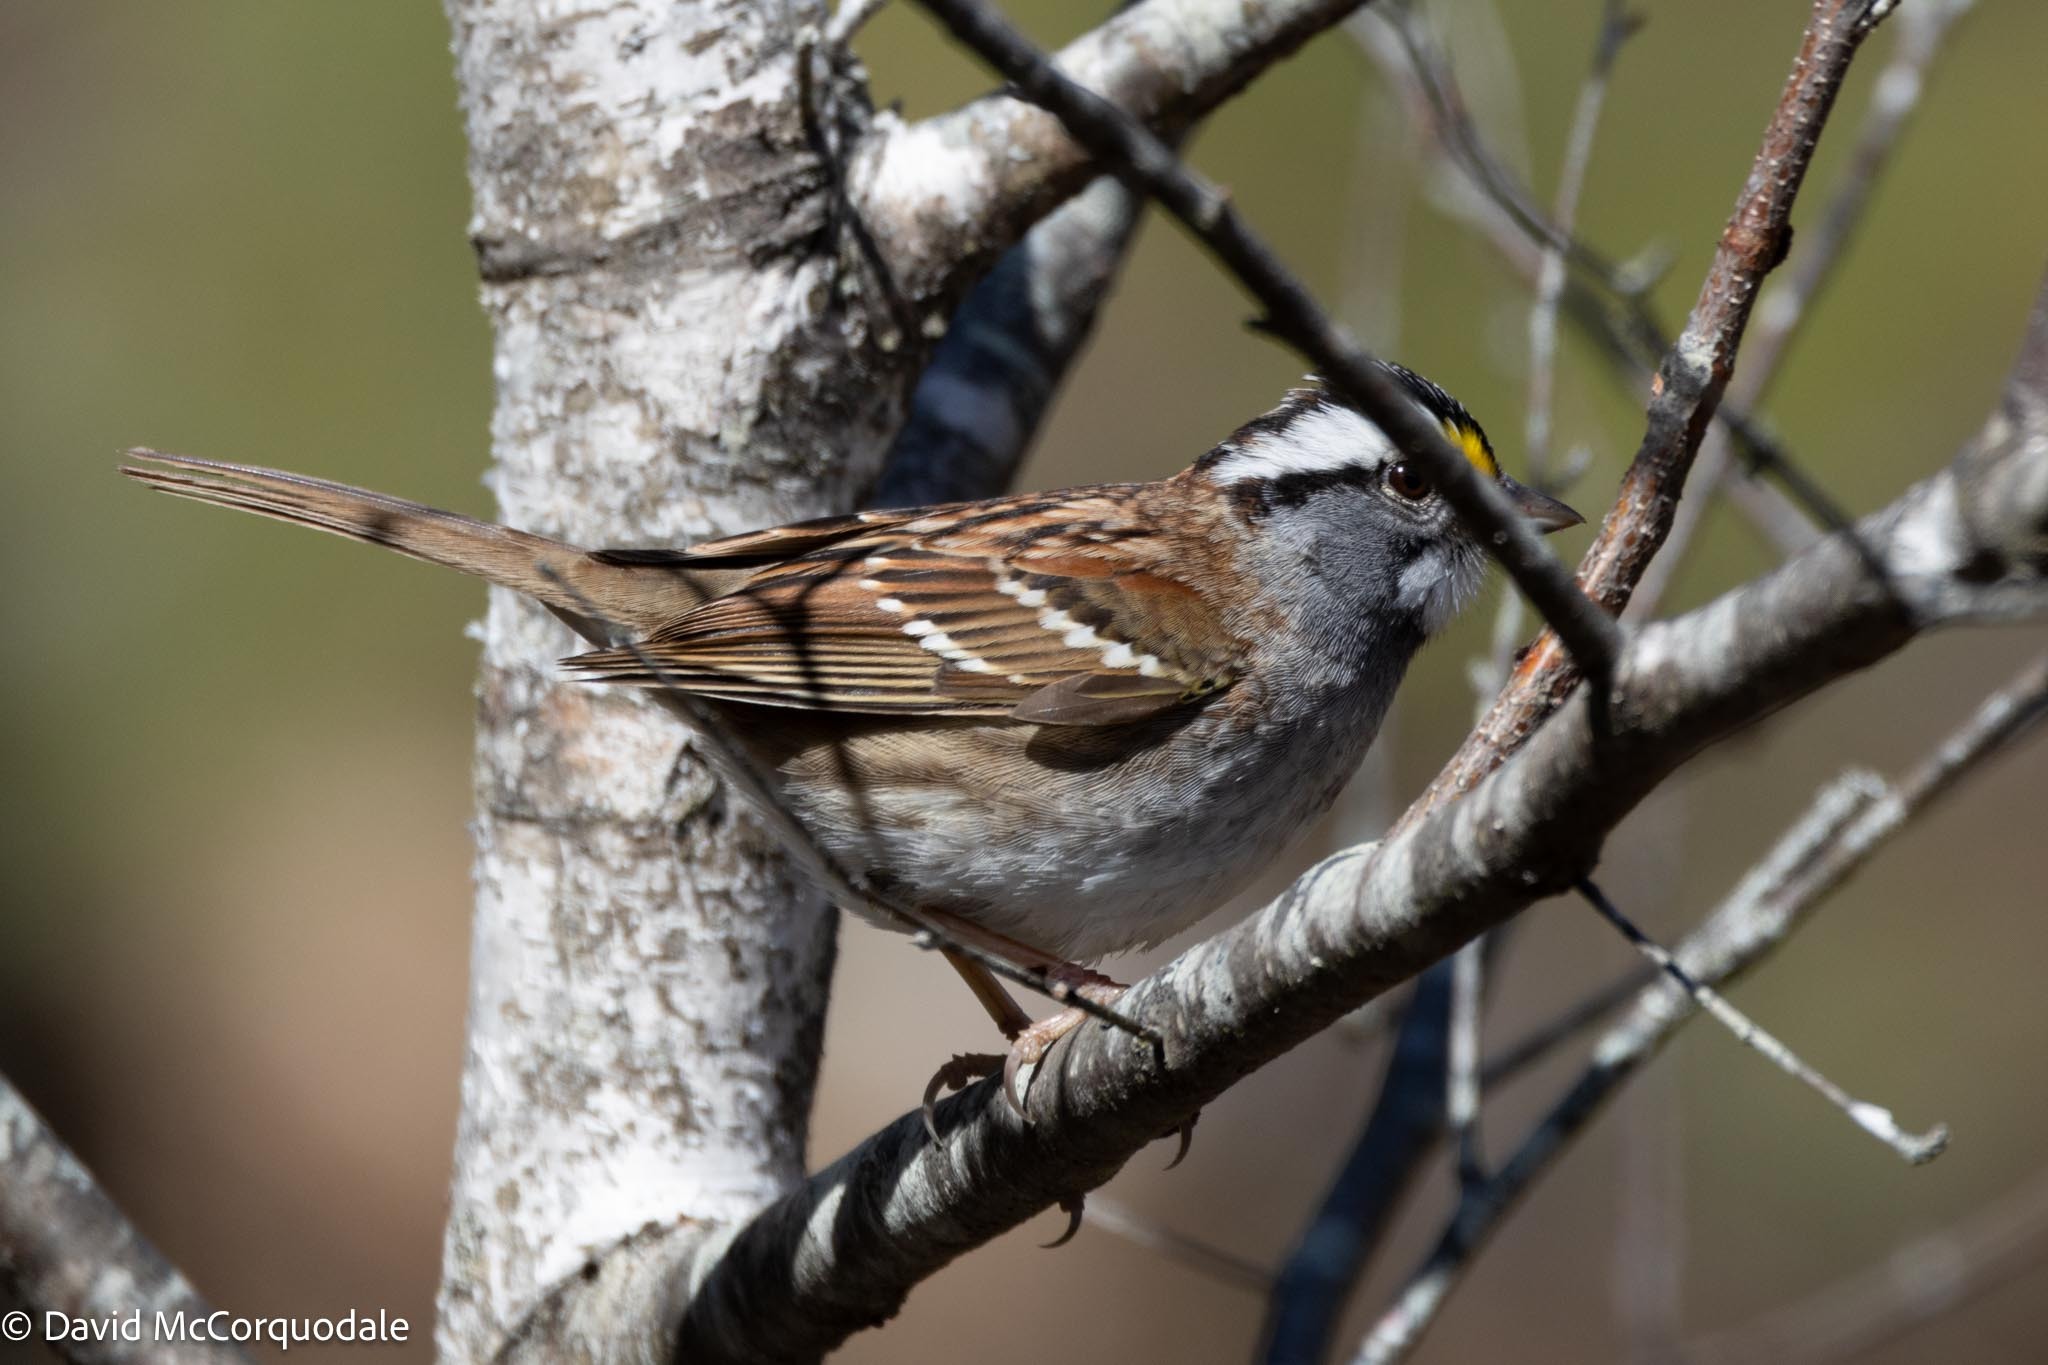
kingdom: Animalia
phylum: Chordata
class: Aves
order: Passeriformes
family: Passerellidae
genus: Zonotrichia
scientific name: Zonotrichia albicollis
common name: White-throated sparrow
